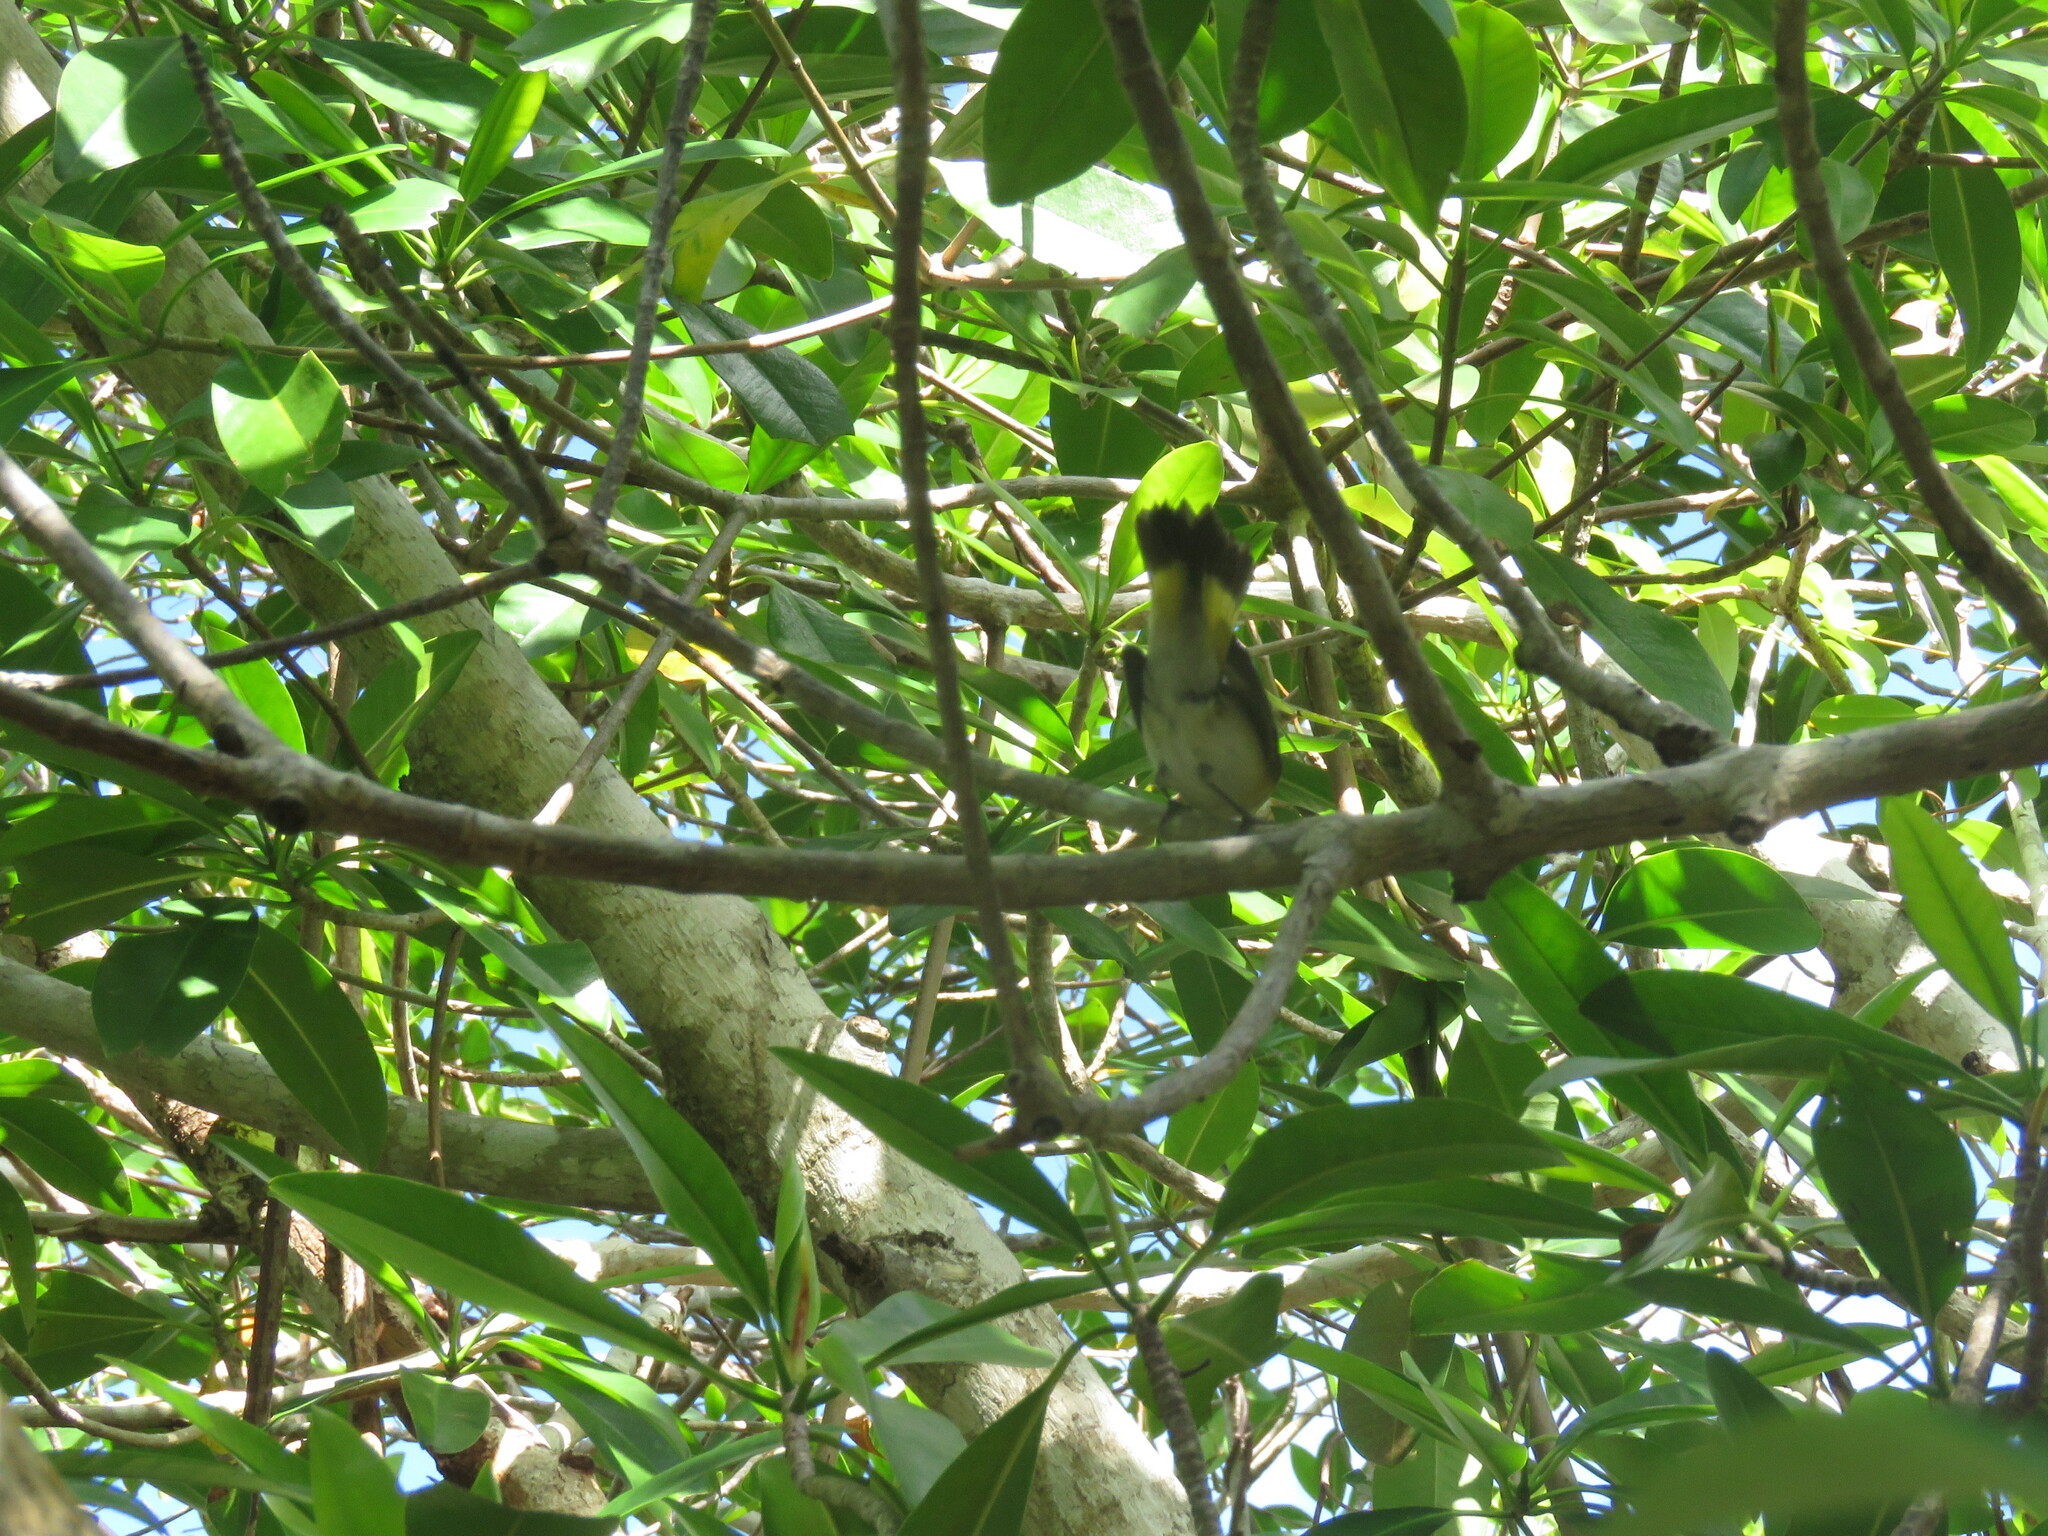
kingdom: Animalia
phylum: Chordata
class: Aves
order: Passeriformes
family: Parulidae
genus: Setophaga
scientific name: Setophaga ruticilla
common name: American redstart
